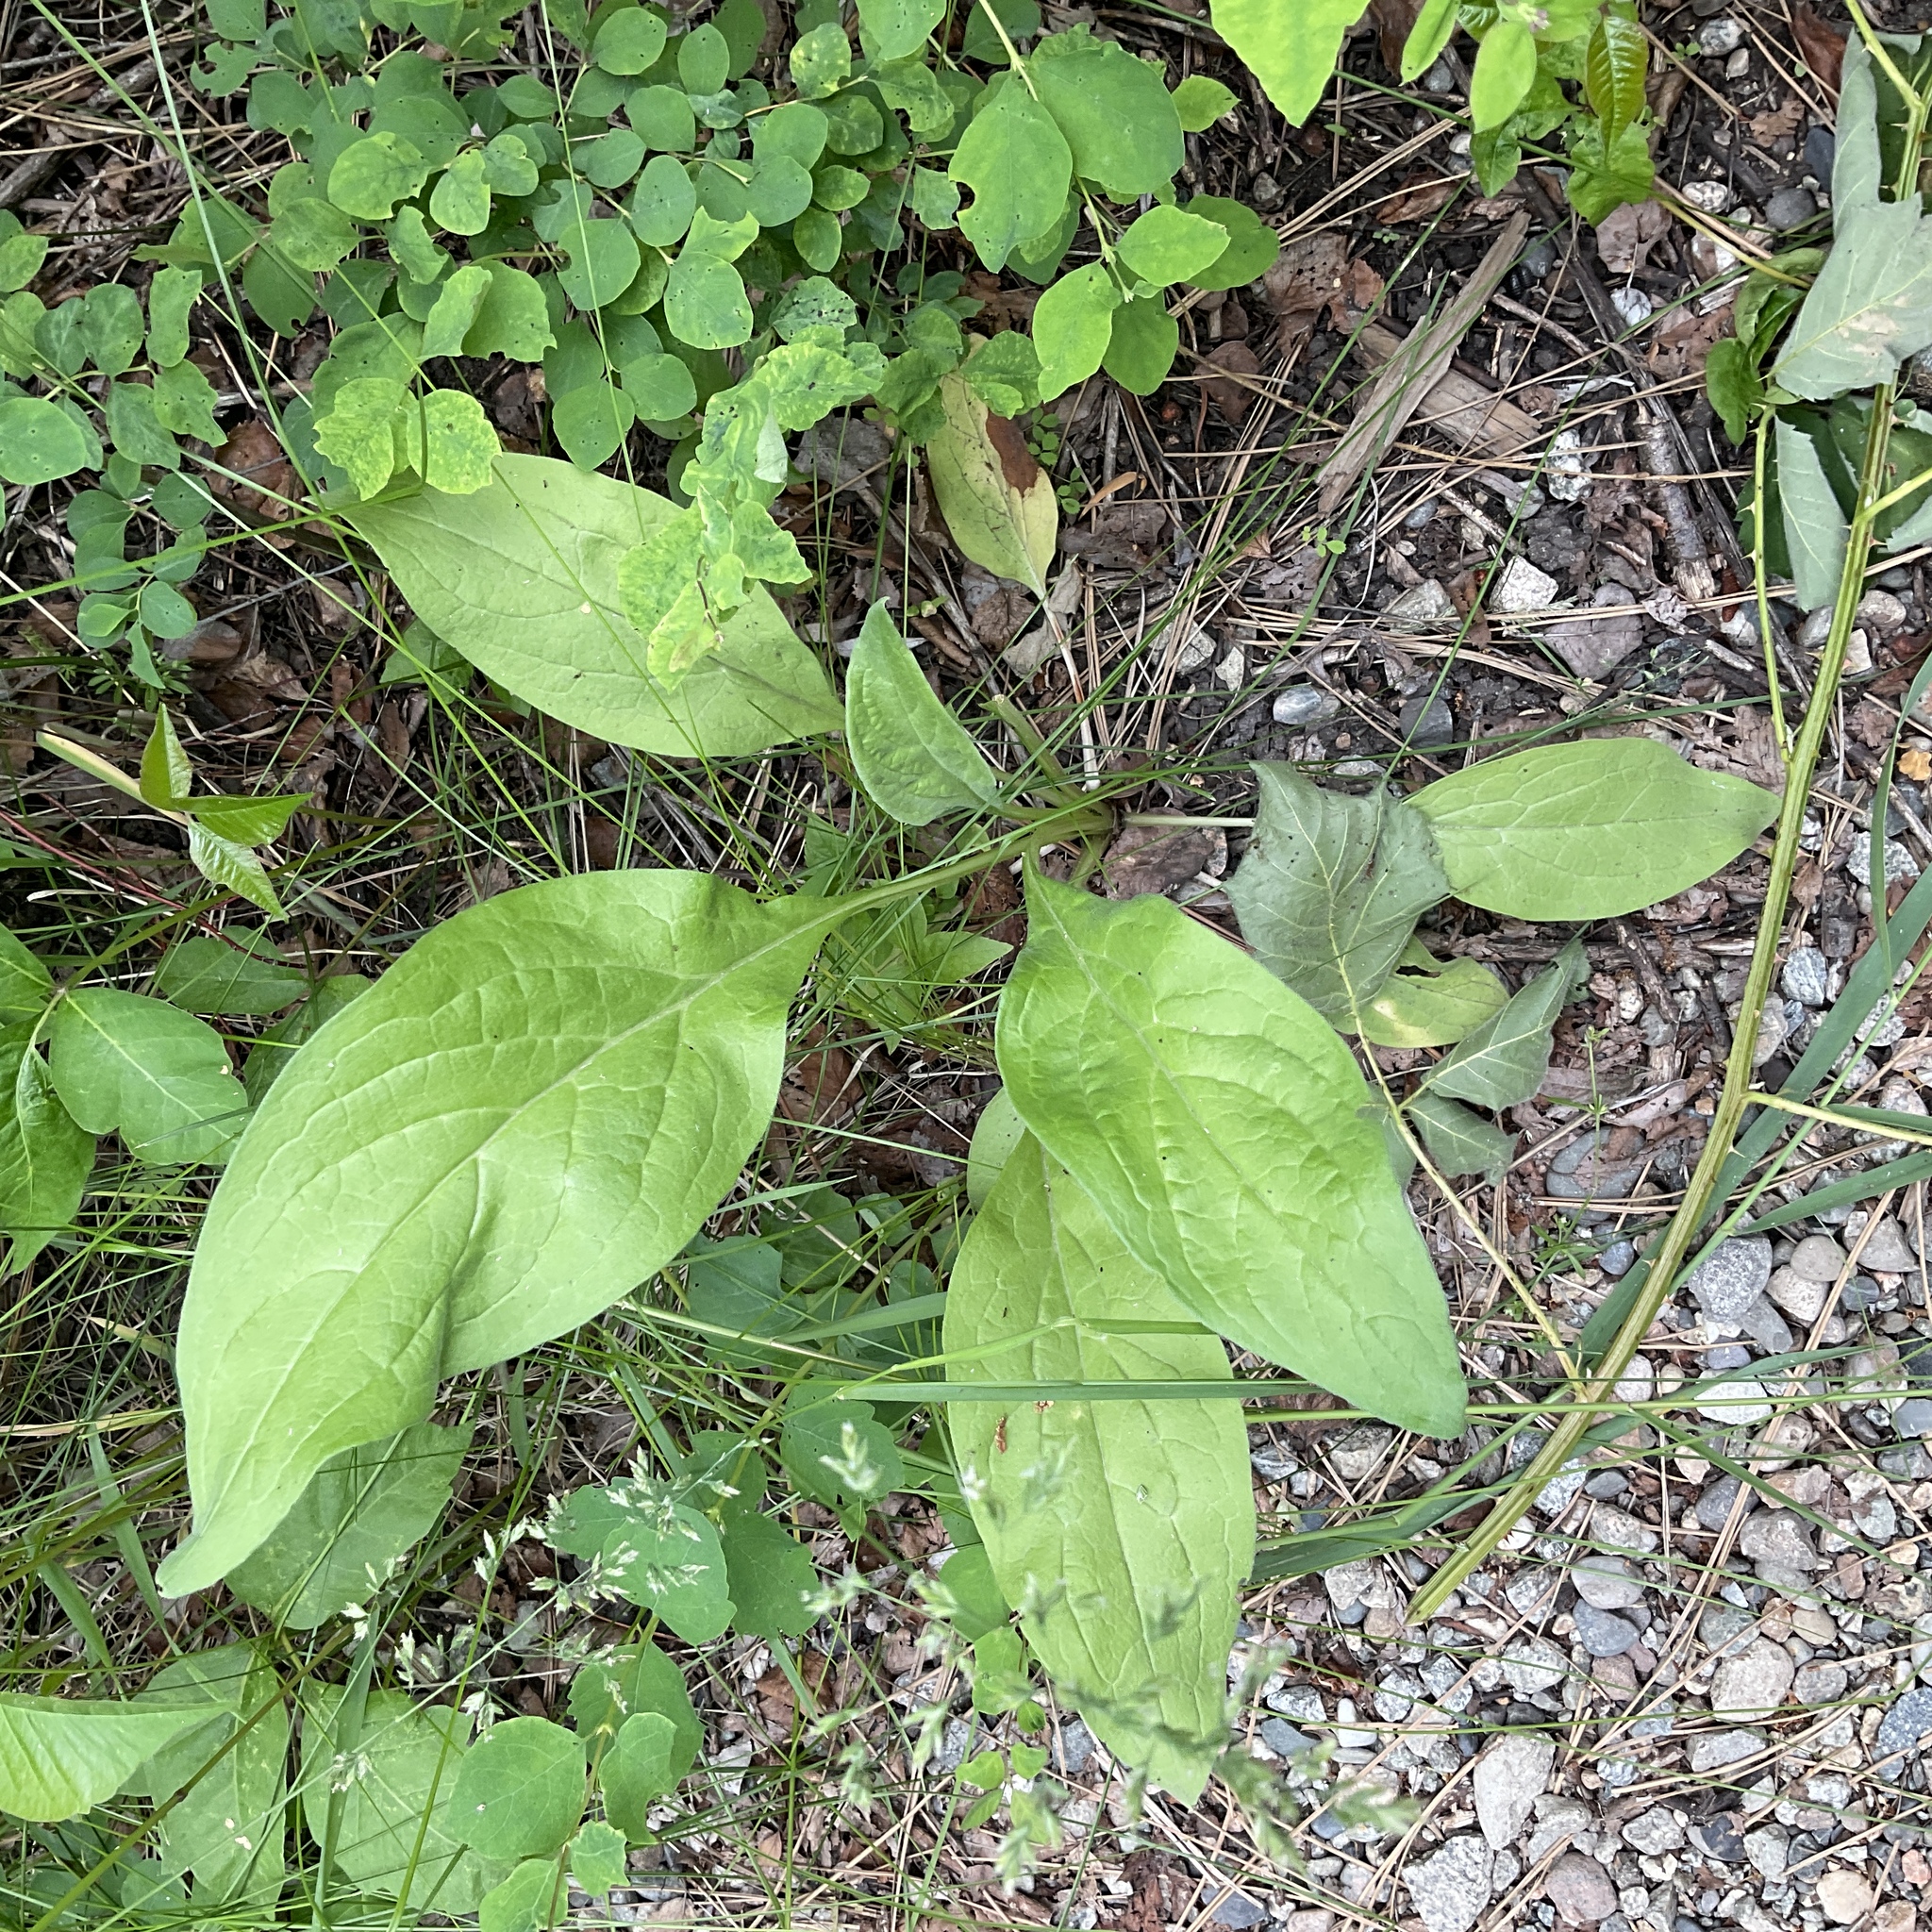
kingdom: Plantae
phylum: Tracheophyta
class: Magnoliopsida
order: Boraginales
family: Boraginaceae
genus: Cynoglossum
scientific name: Cynoglossum officinale
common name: Hound's-tongue
